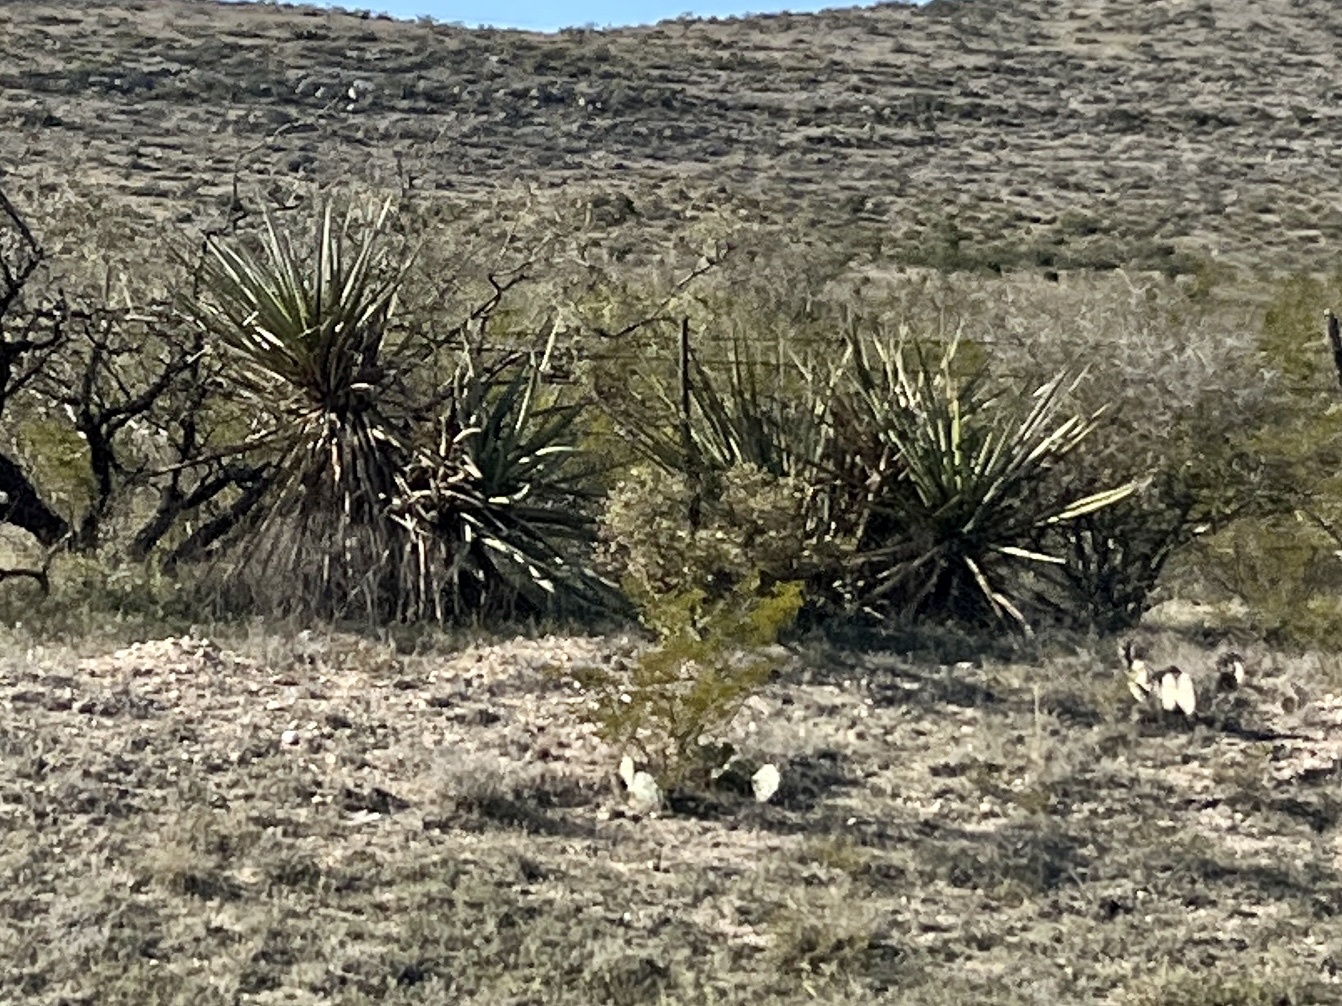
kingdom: Plantae
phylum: Tracheophyta
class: Liliopsida
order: Asparagales
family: Asparagaceae
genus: Yucca
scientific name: Yucca treculiana
